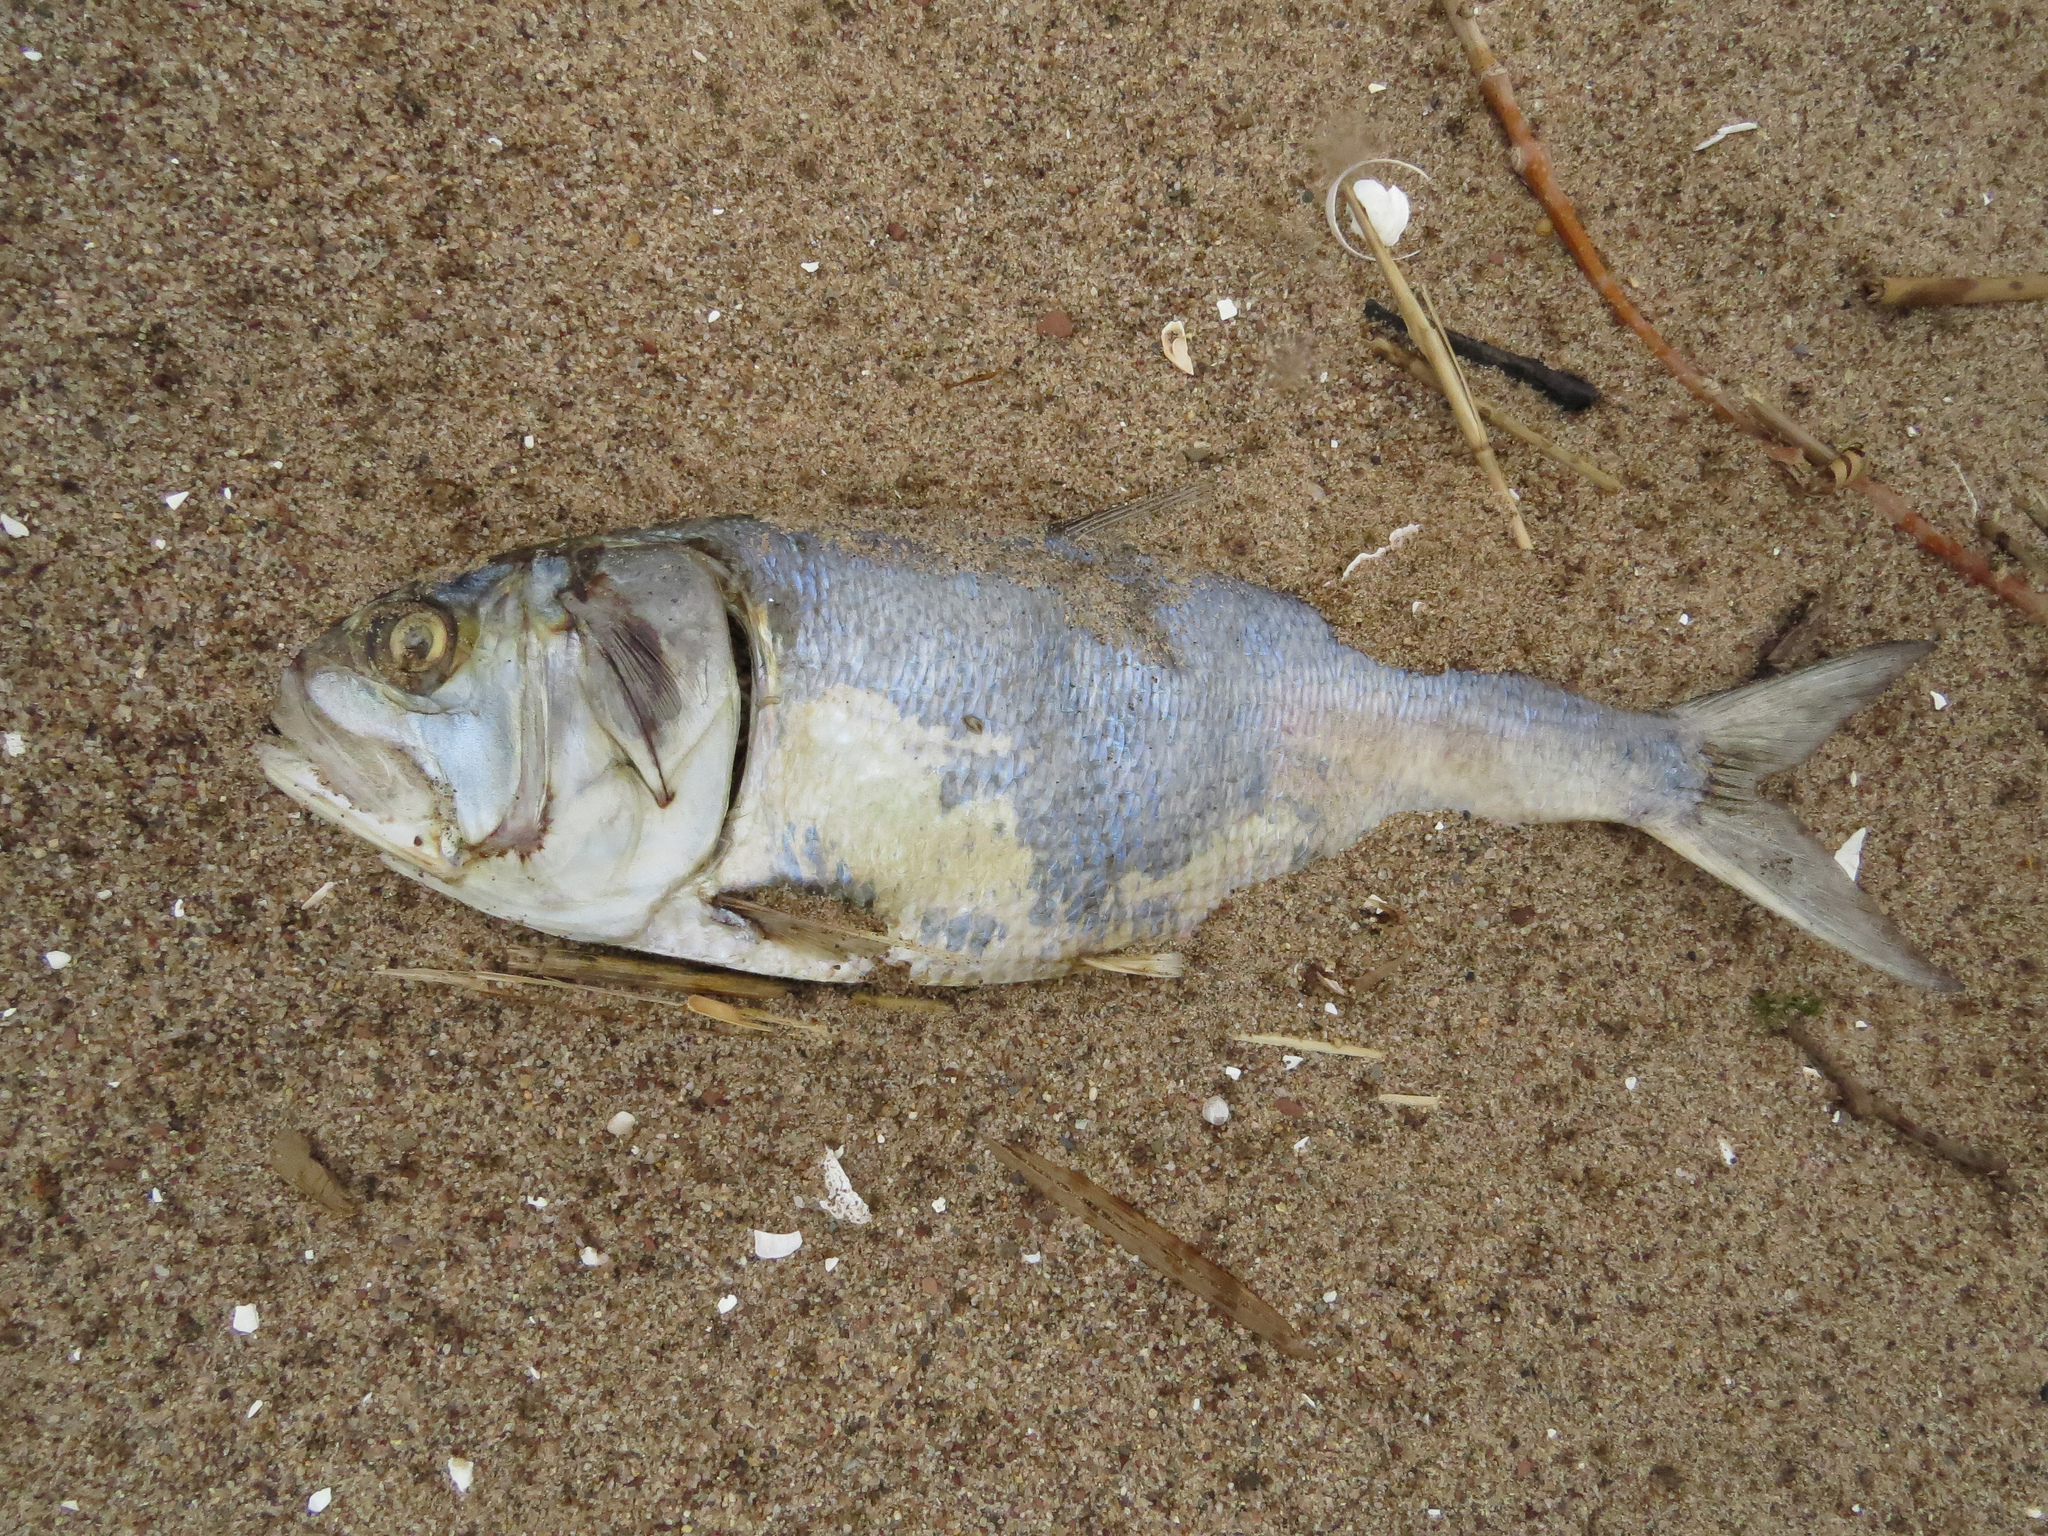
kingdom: Animalia
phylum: Chordata
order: Clupeiformes
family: Clupeidae
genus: Brevoortia
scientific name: Brevoortia tyrannus
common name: Atlantic menhaden
